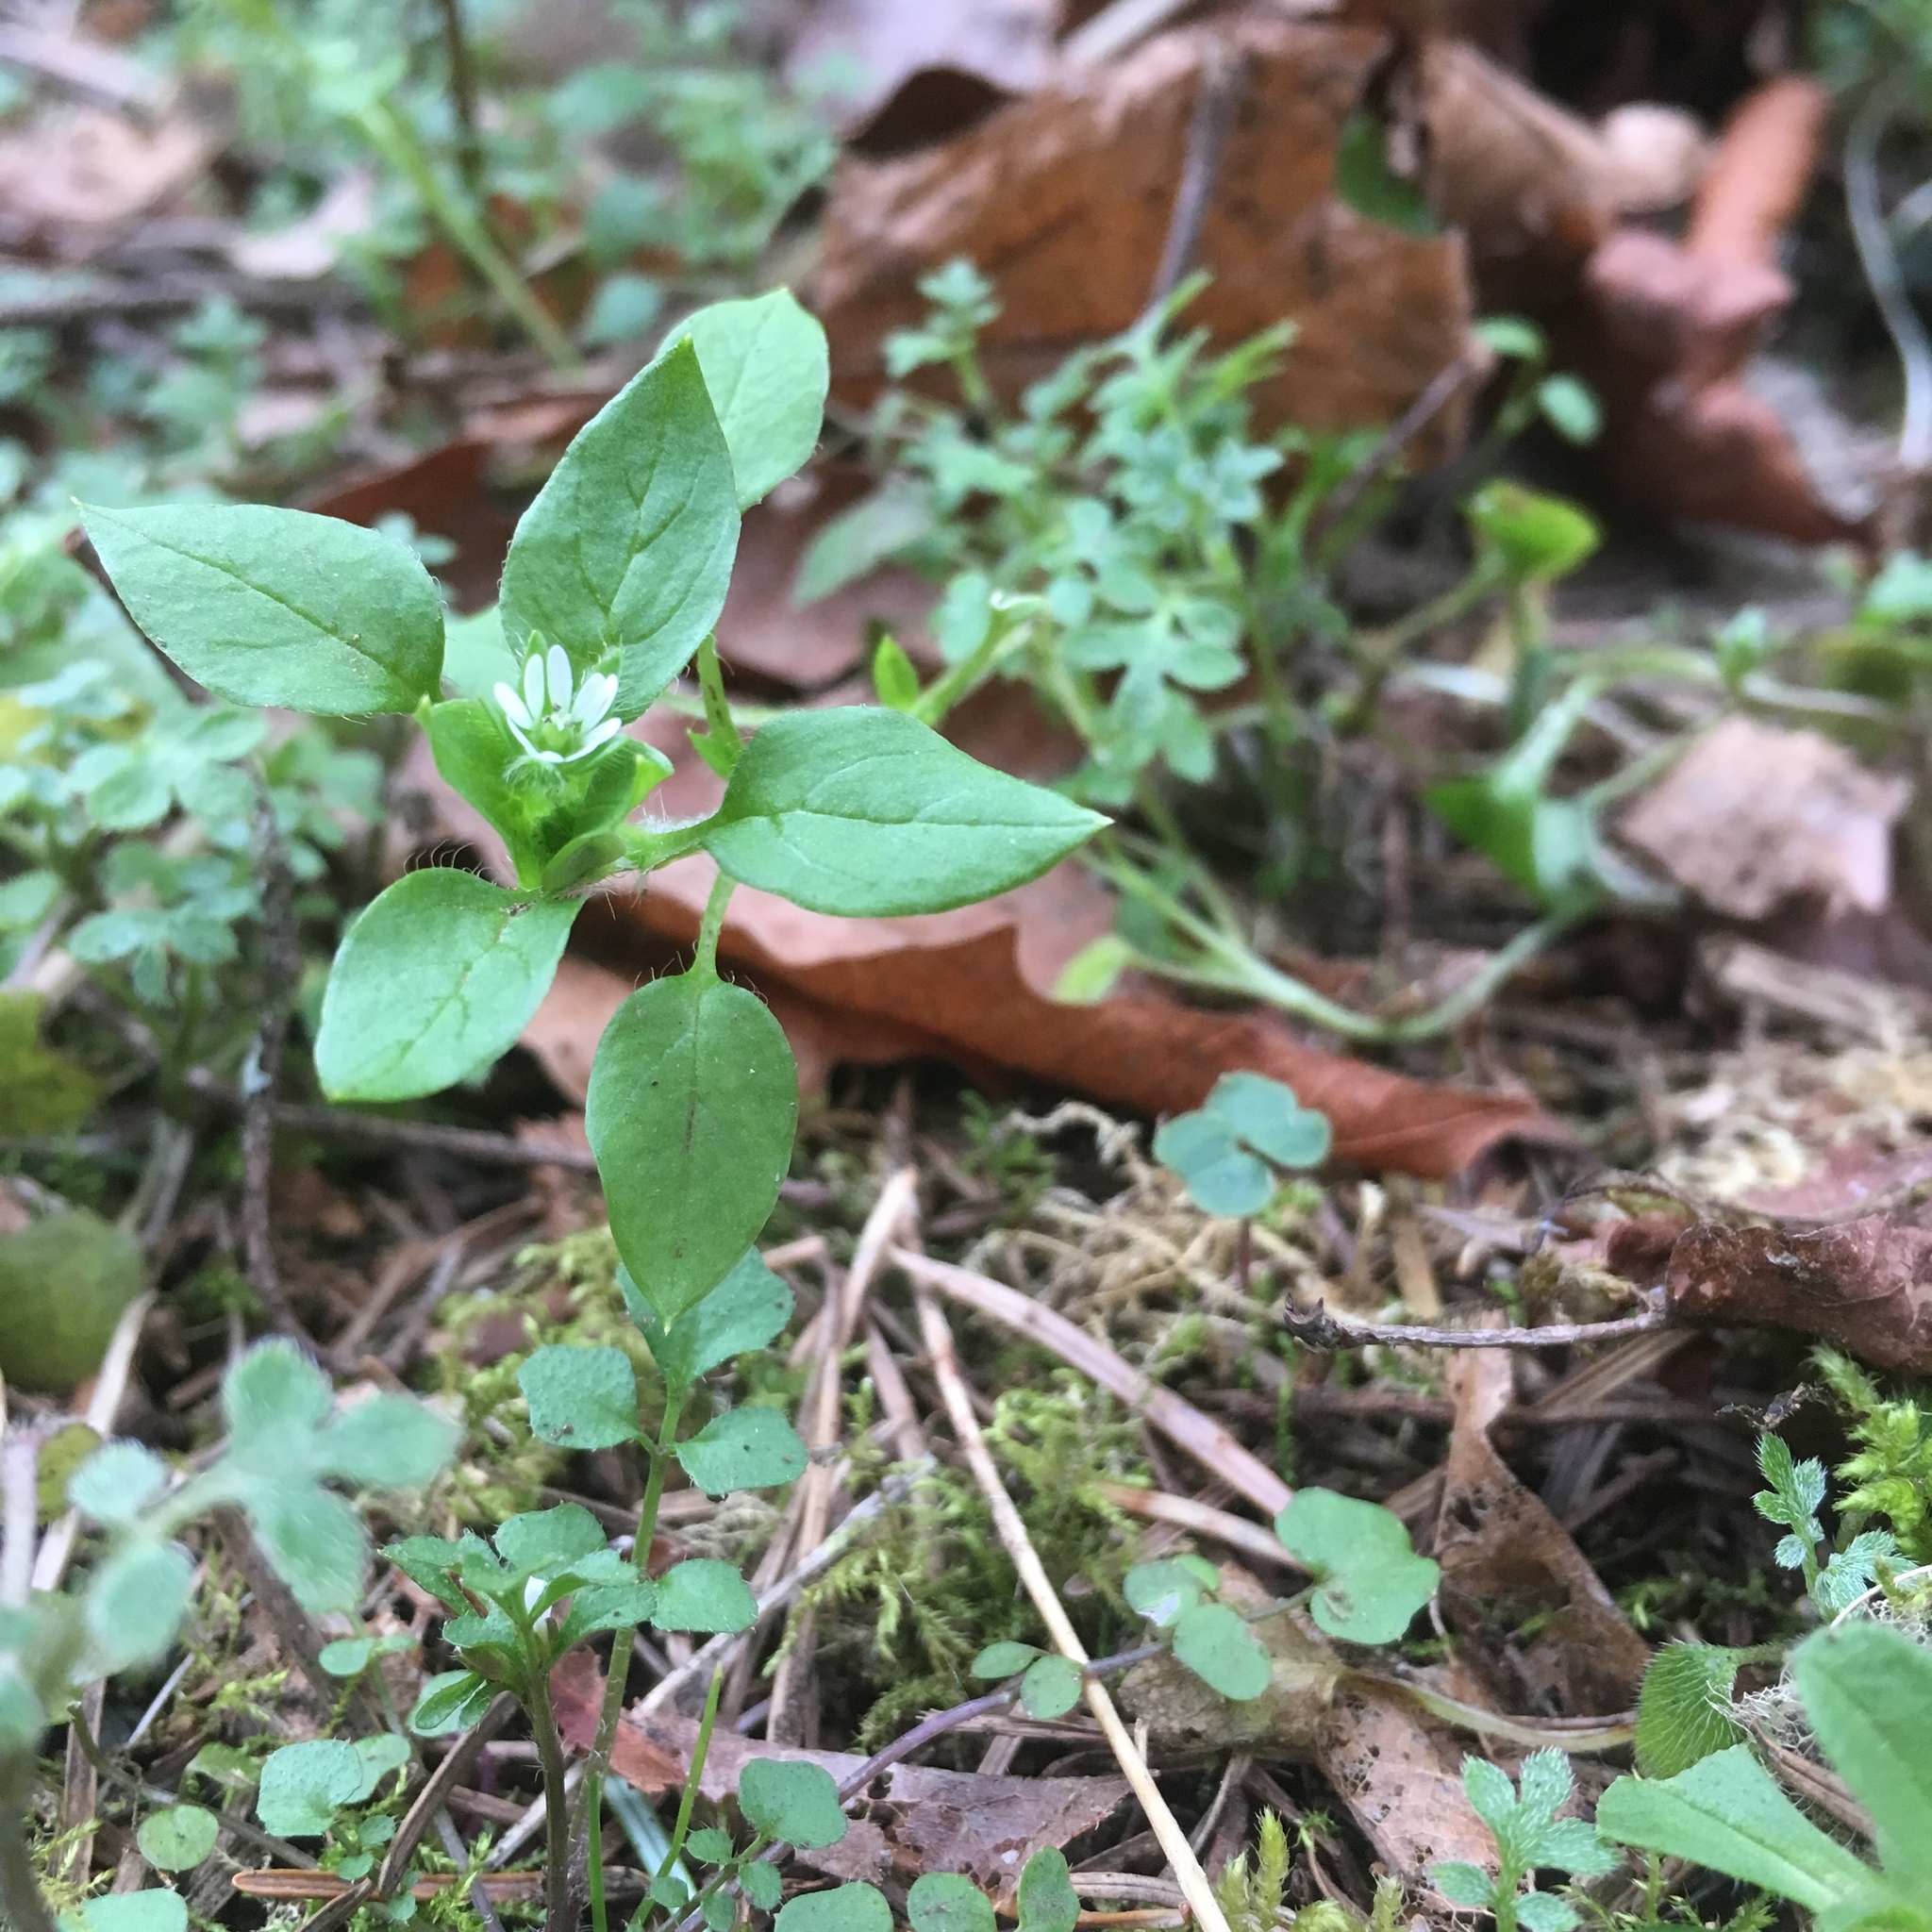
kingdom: Plantae
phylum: Tracheophyta
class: Magnoliopsida
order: Caryophyllales
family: Caryophyllaceae
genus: Stellaria
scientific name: Stellaria media
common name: Common chickweed
